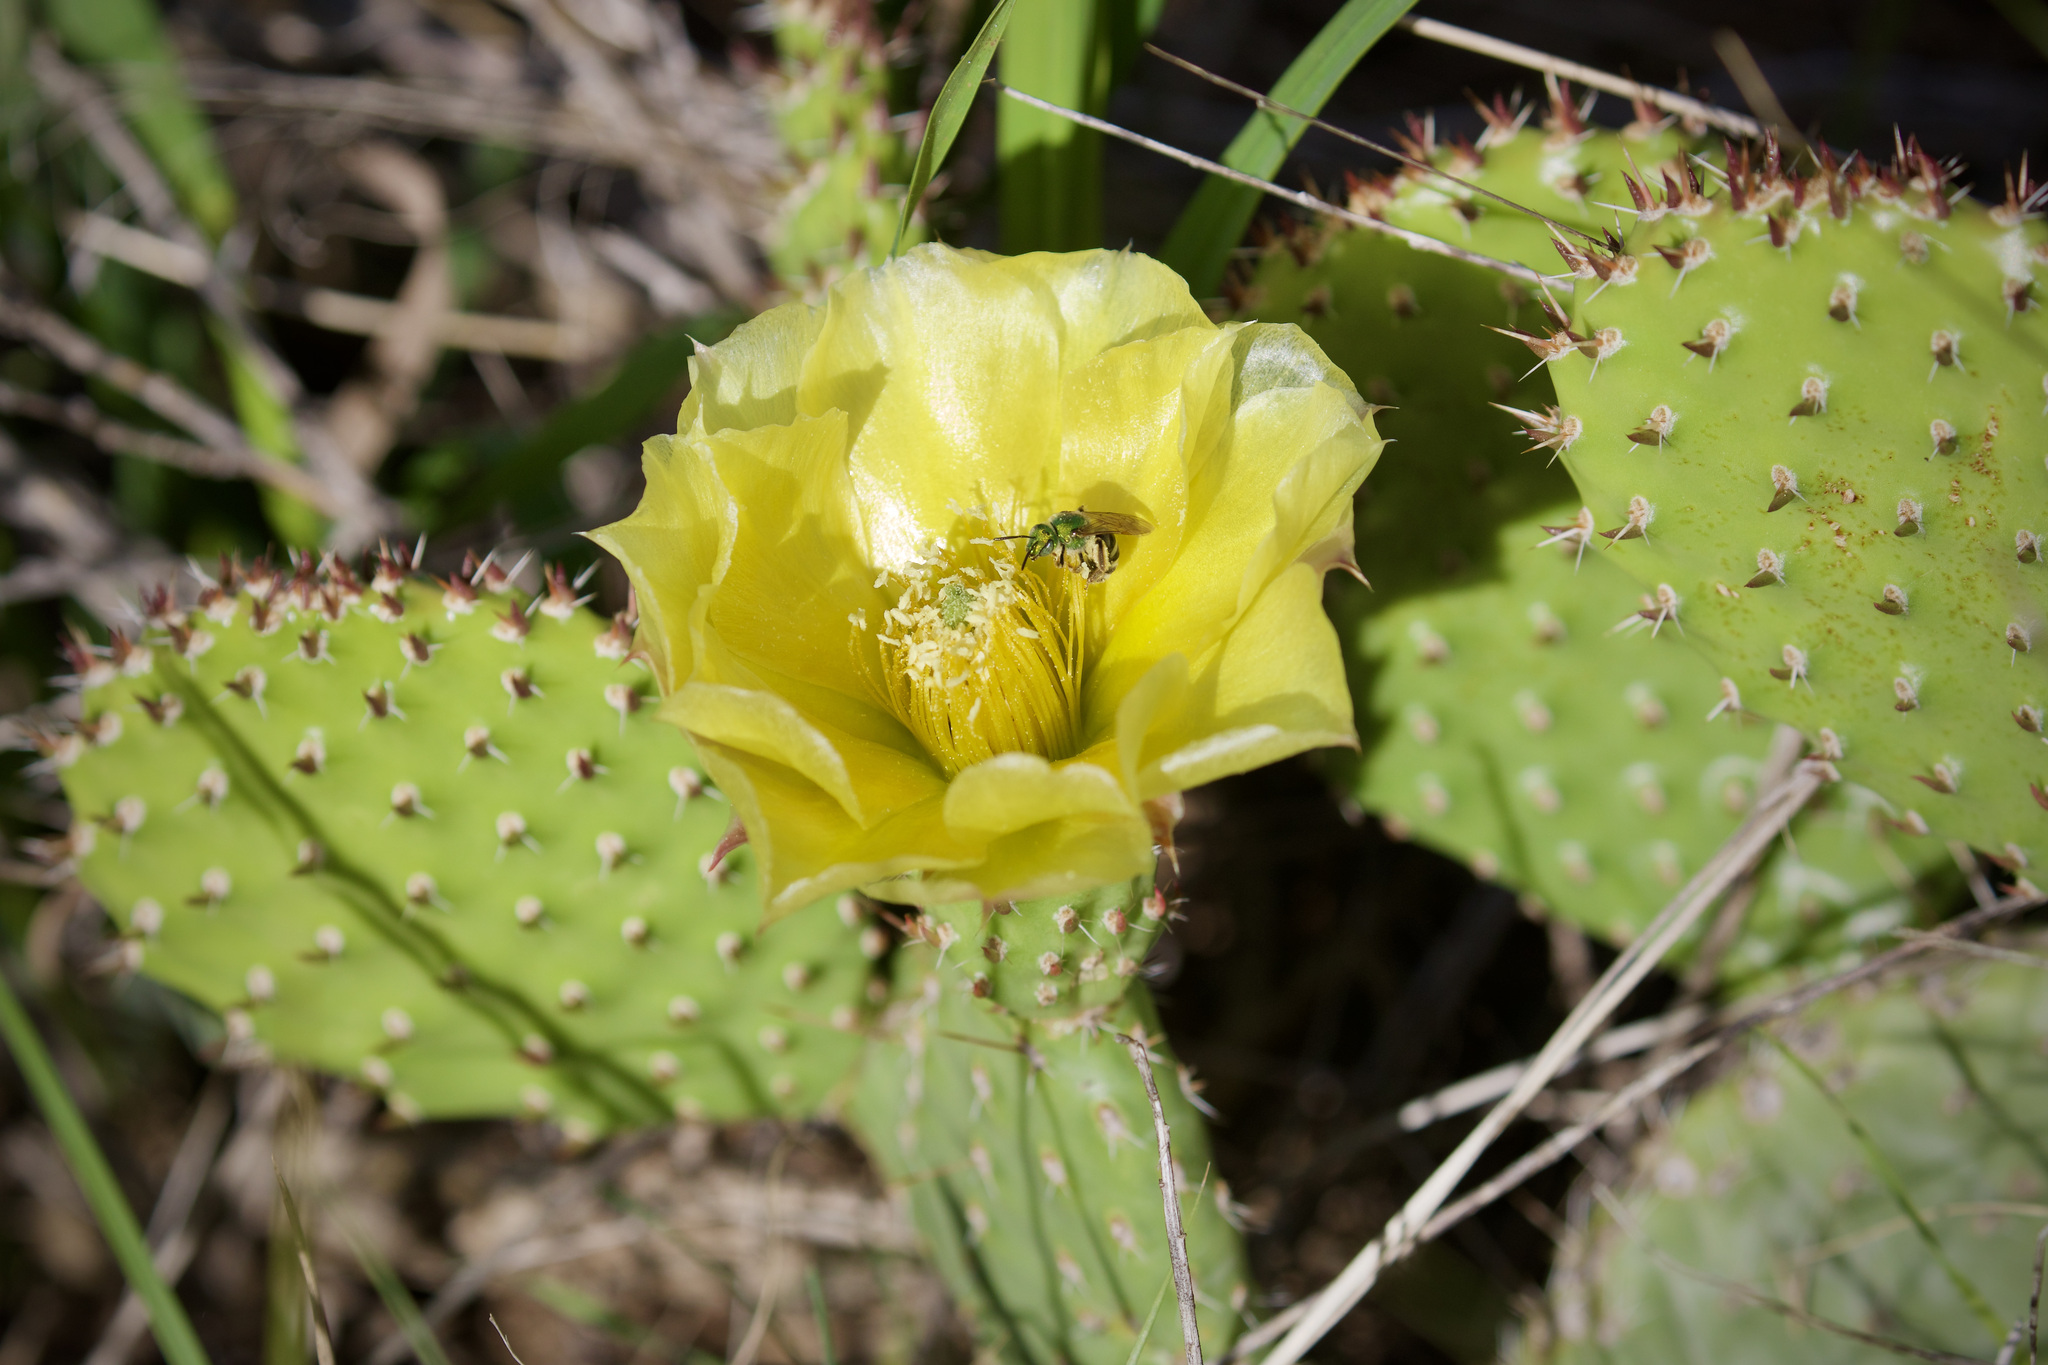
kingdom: Plantae
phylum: Tracheophyta
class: Magnoliopsida
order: Caryophyllales
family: Cactaceae
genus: Opuntia
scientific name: Opuntia polyacantha
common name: Plains prickly-pear
